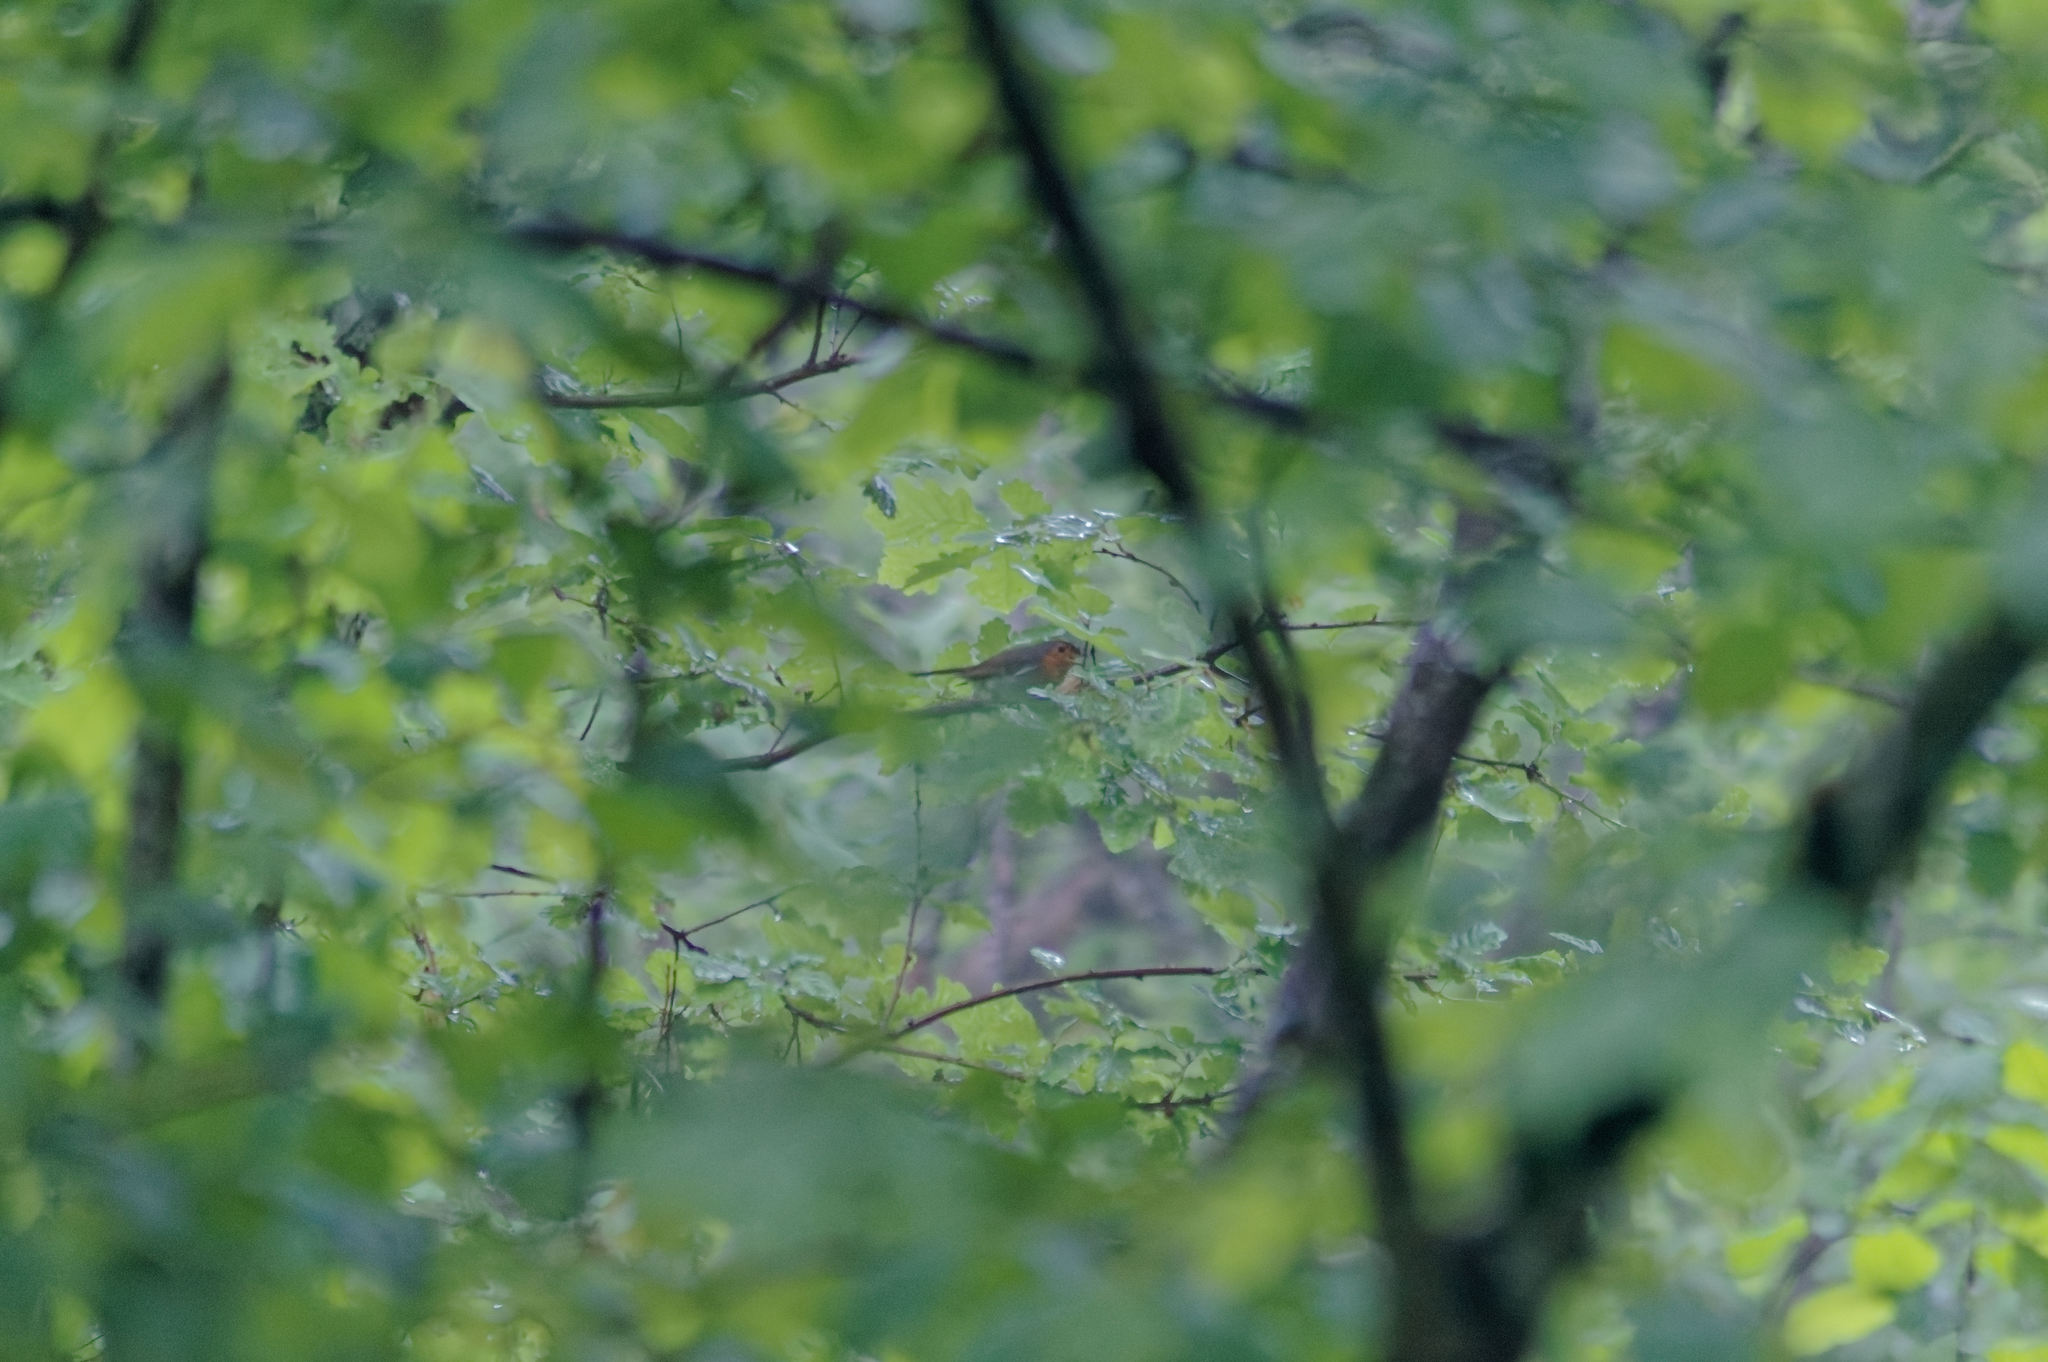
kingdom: Animalia
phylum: Chordata
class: Aves
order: Passeriformes
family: Muscicapidae
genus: Erithacus
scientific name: Erithacus rubecula
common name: European robin
